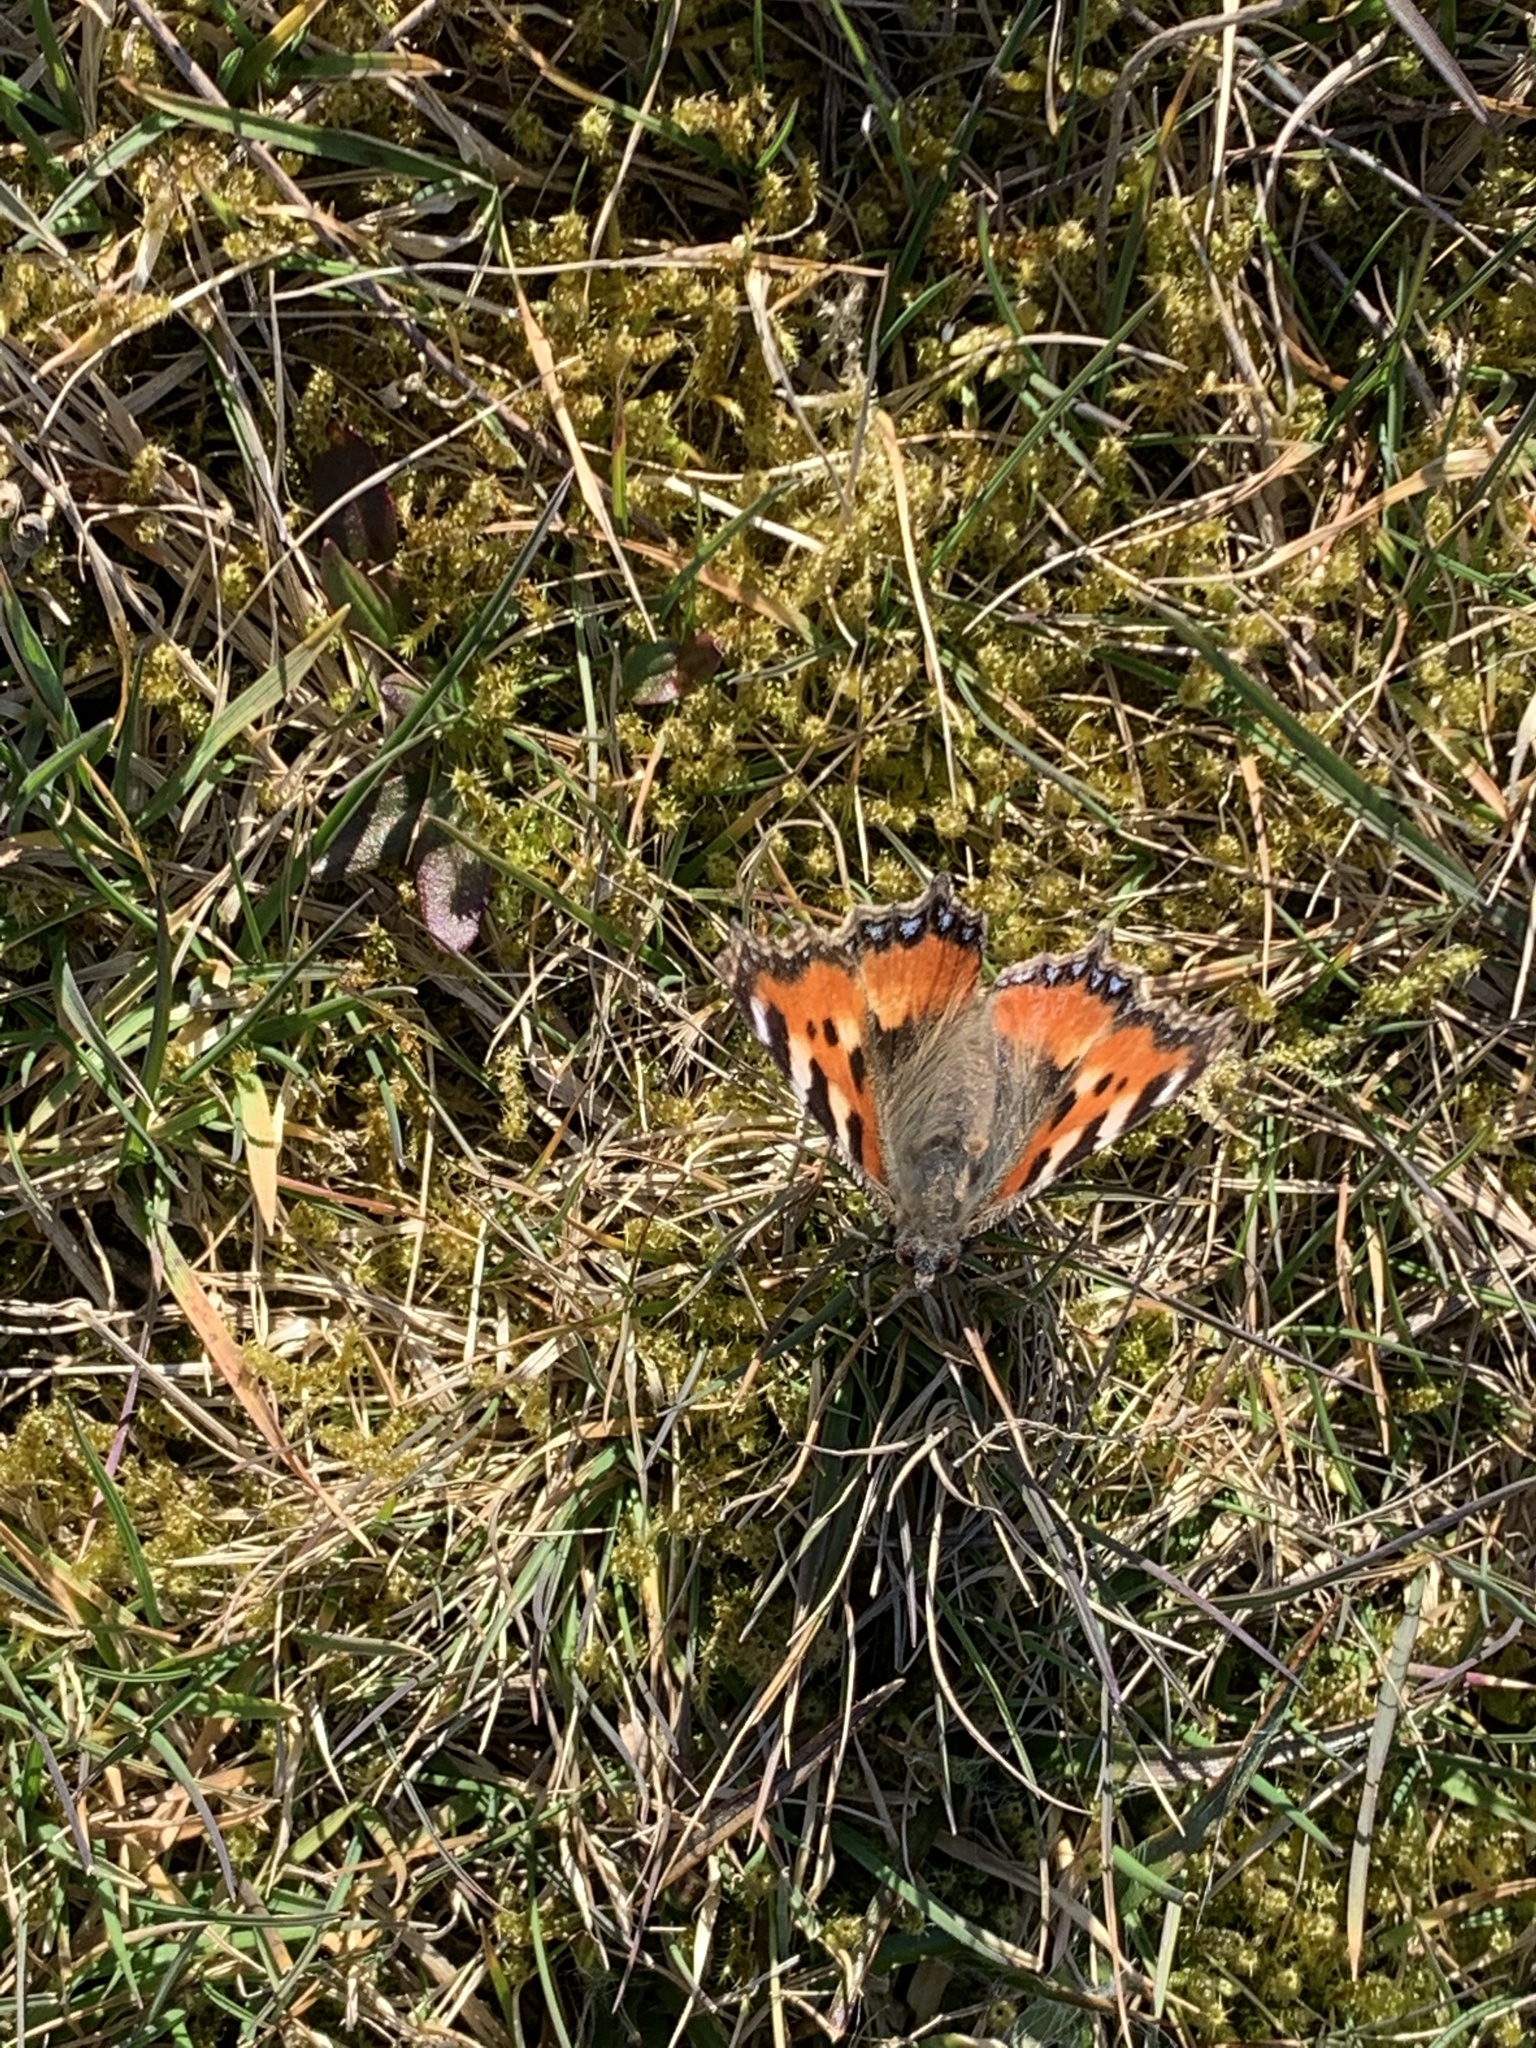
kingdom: Animalia
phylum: Arthropoda
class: Insecta
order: Lepidoptera
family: Nymphalidae
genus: Aglais
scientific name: Aglais urticae
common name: Small tortoiseshell
